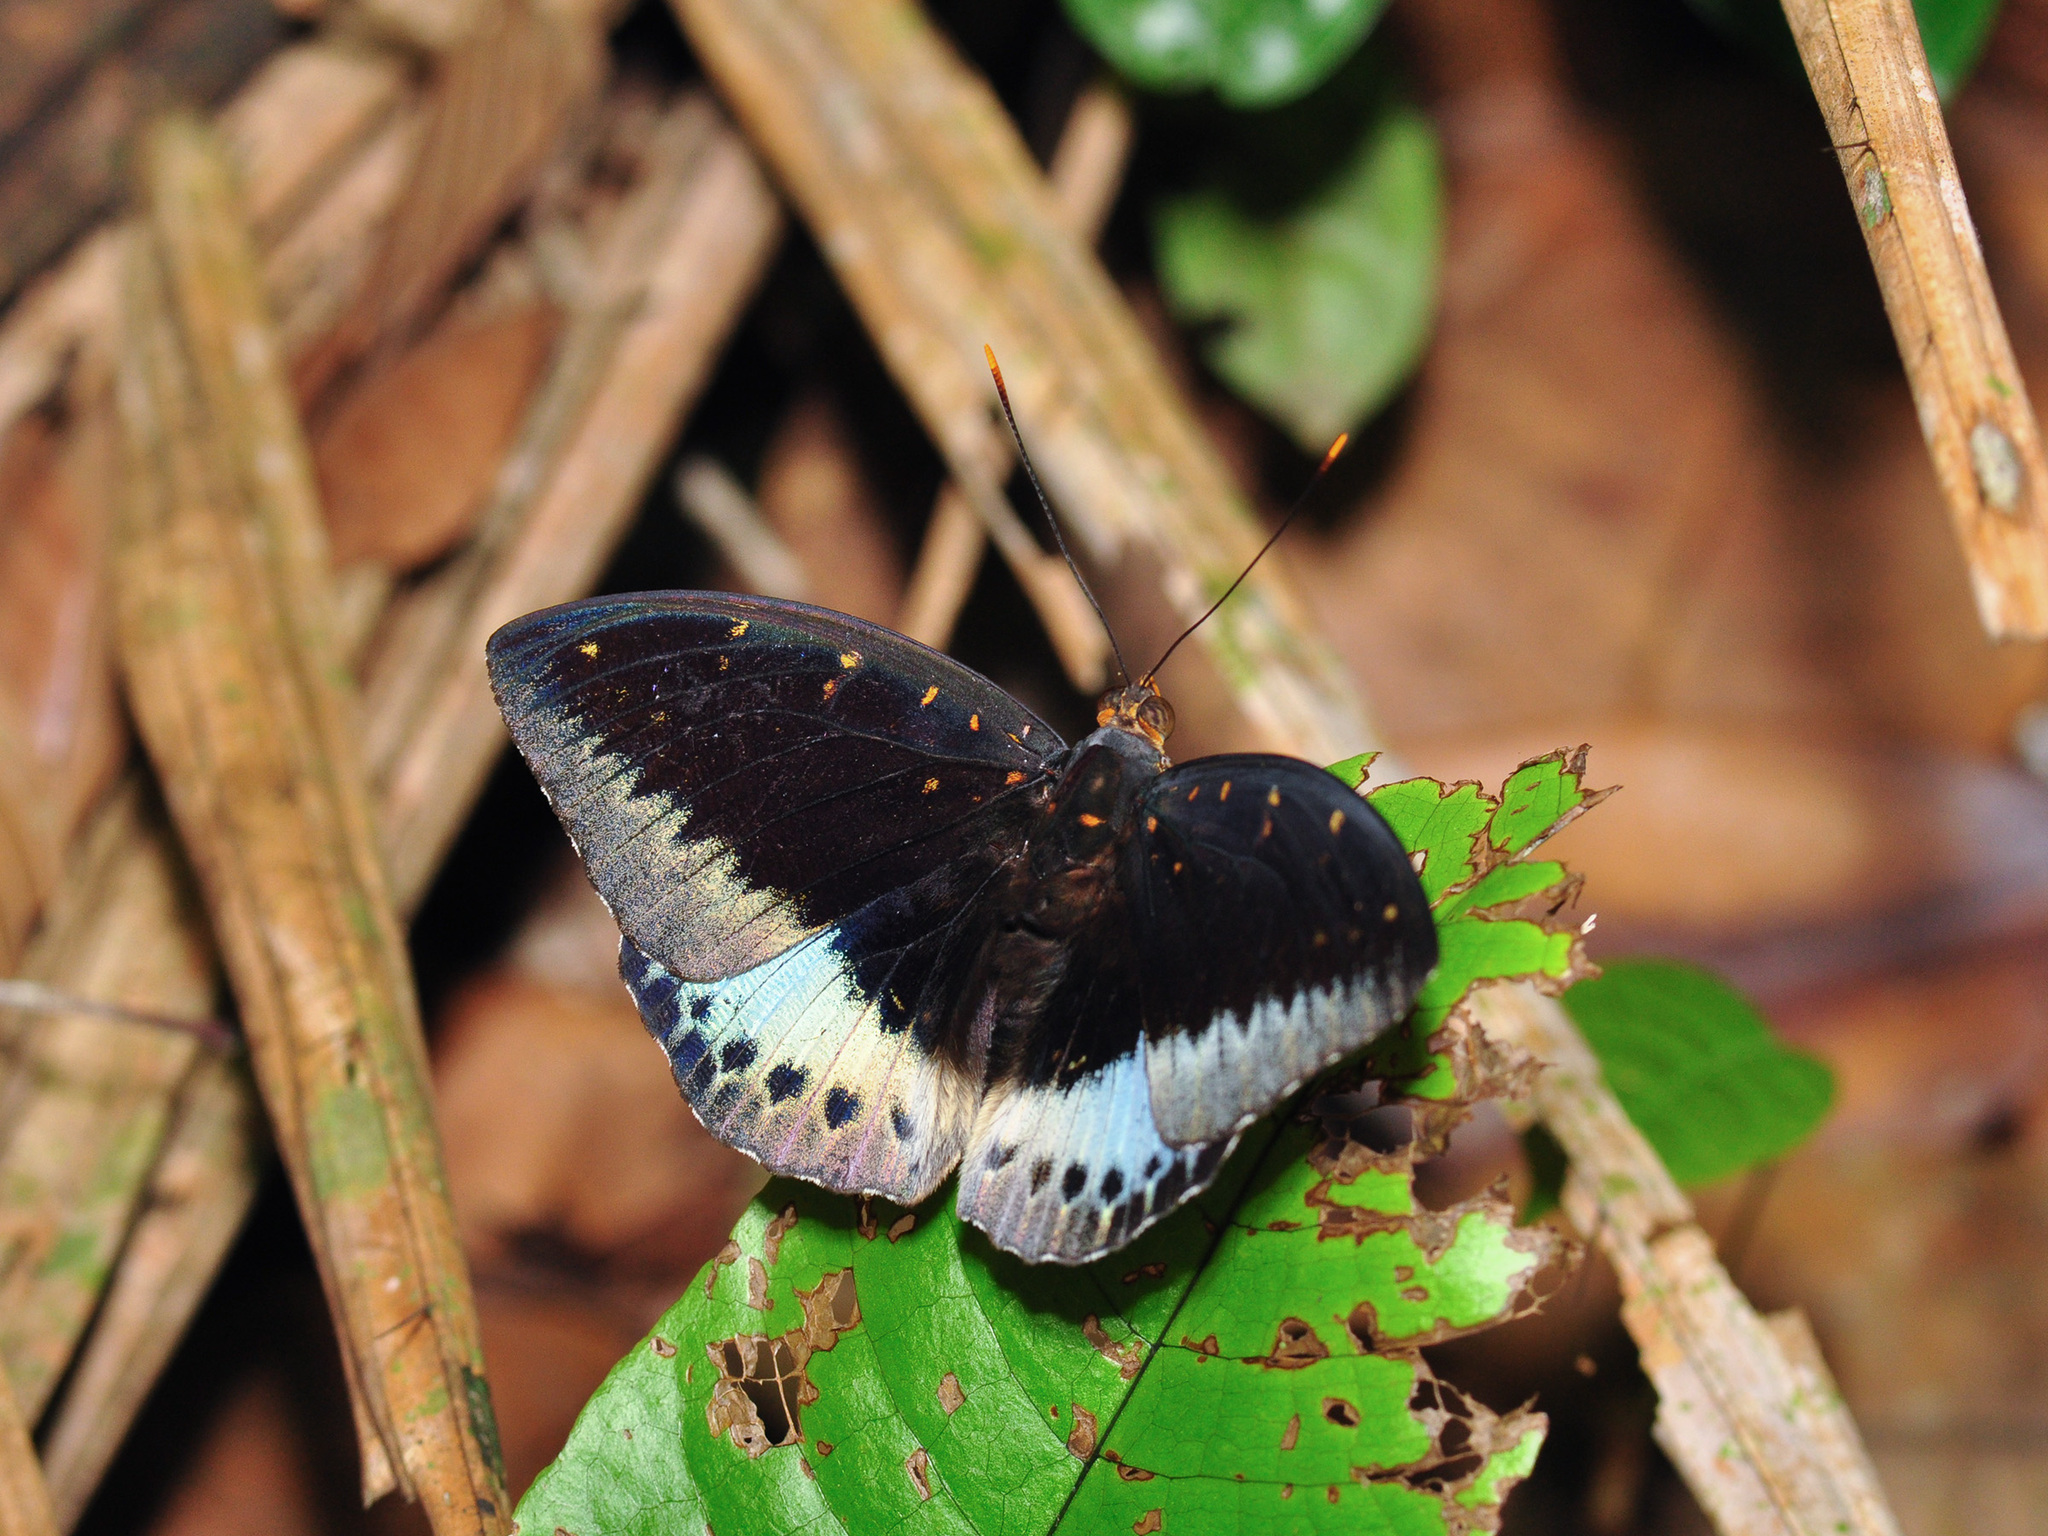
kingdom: Animalia
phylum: Arthropoda
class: Insecta
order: Lepidoptera
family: Nymphalidae
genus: Lexias
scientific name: Lexias pardalis
